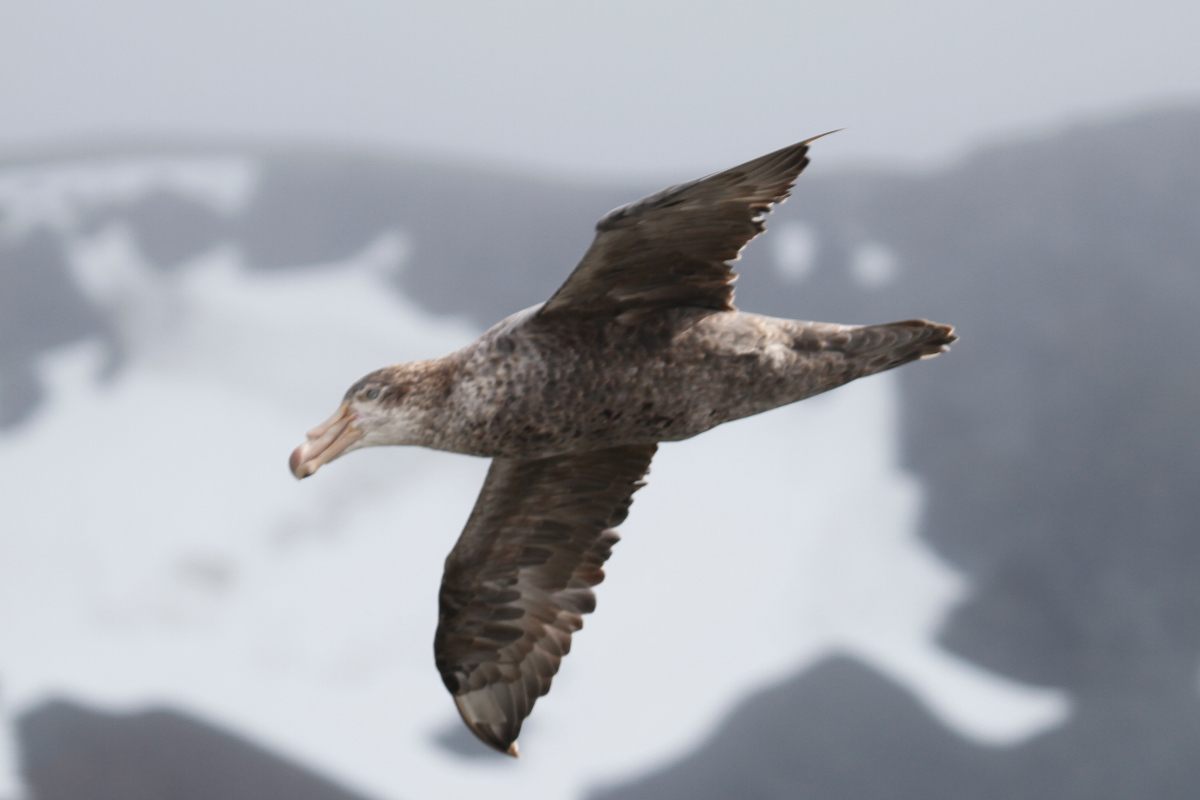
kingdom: Animalia
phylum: Chordata
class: Aves
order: Procellariiformes
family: Procellariidae
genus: Macronectes
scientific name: Macronectes halli
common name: Northern giant petrel
